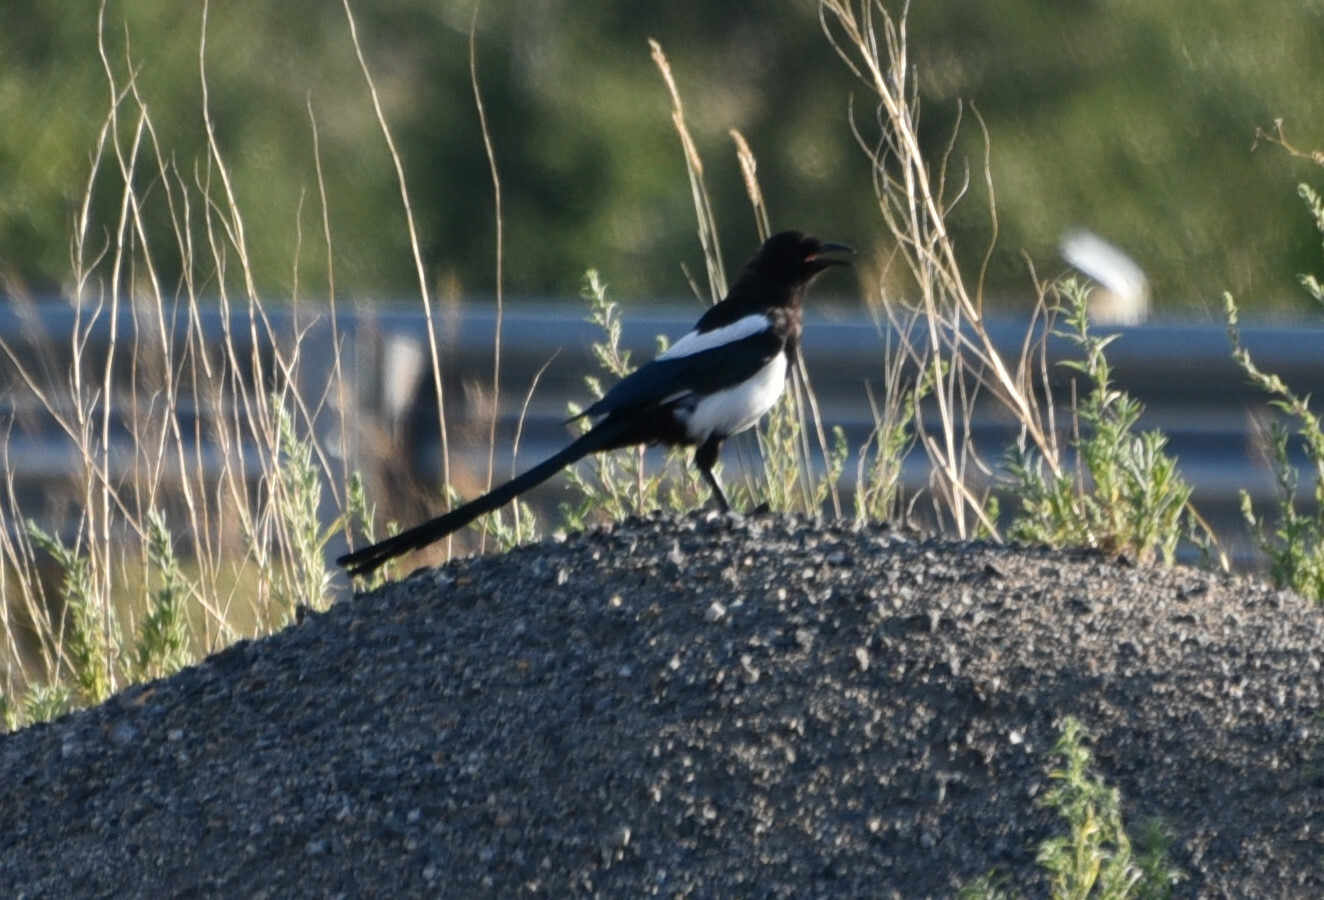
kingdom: Animalia
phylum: Chordata
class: Aves
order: Passeriformes
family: Corvidae
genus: Pica
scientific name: Pica hudsonia
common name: Black-billed magpie
